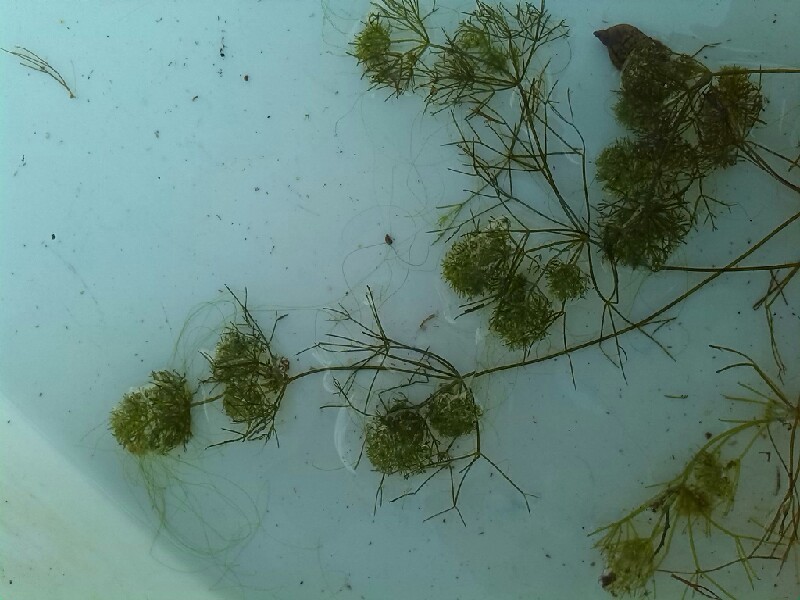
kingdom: Plantae
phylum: Charophyta
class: Charophyceae
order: Charales
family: Characeae
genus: Nitella
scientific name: Nitella mucronata
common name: Compact stonewort
